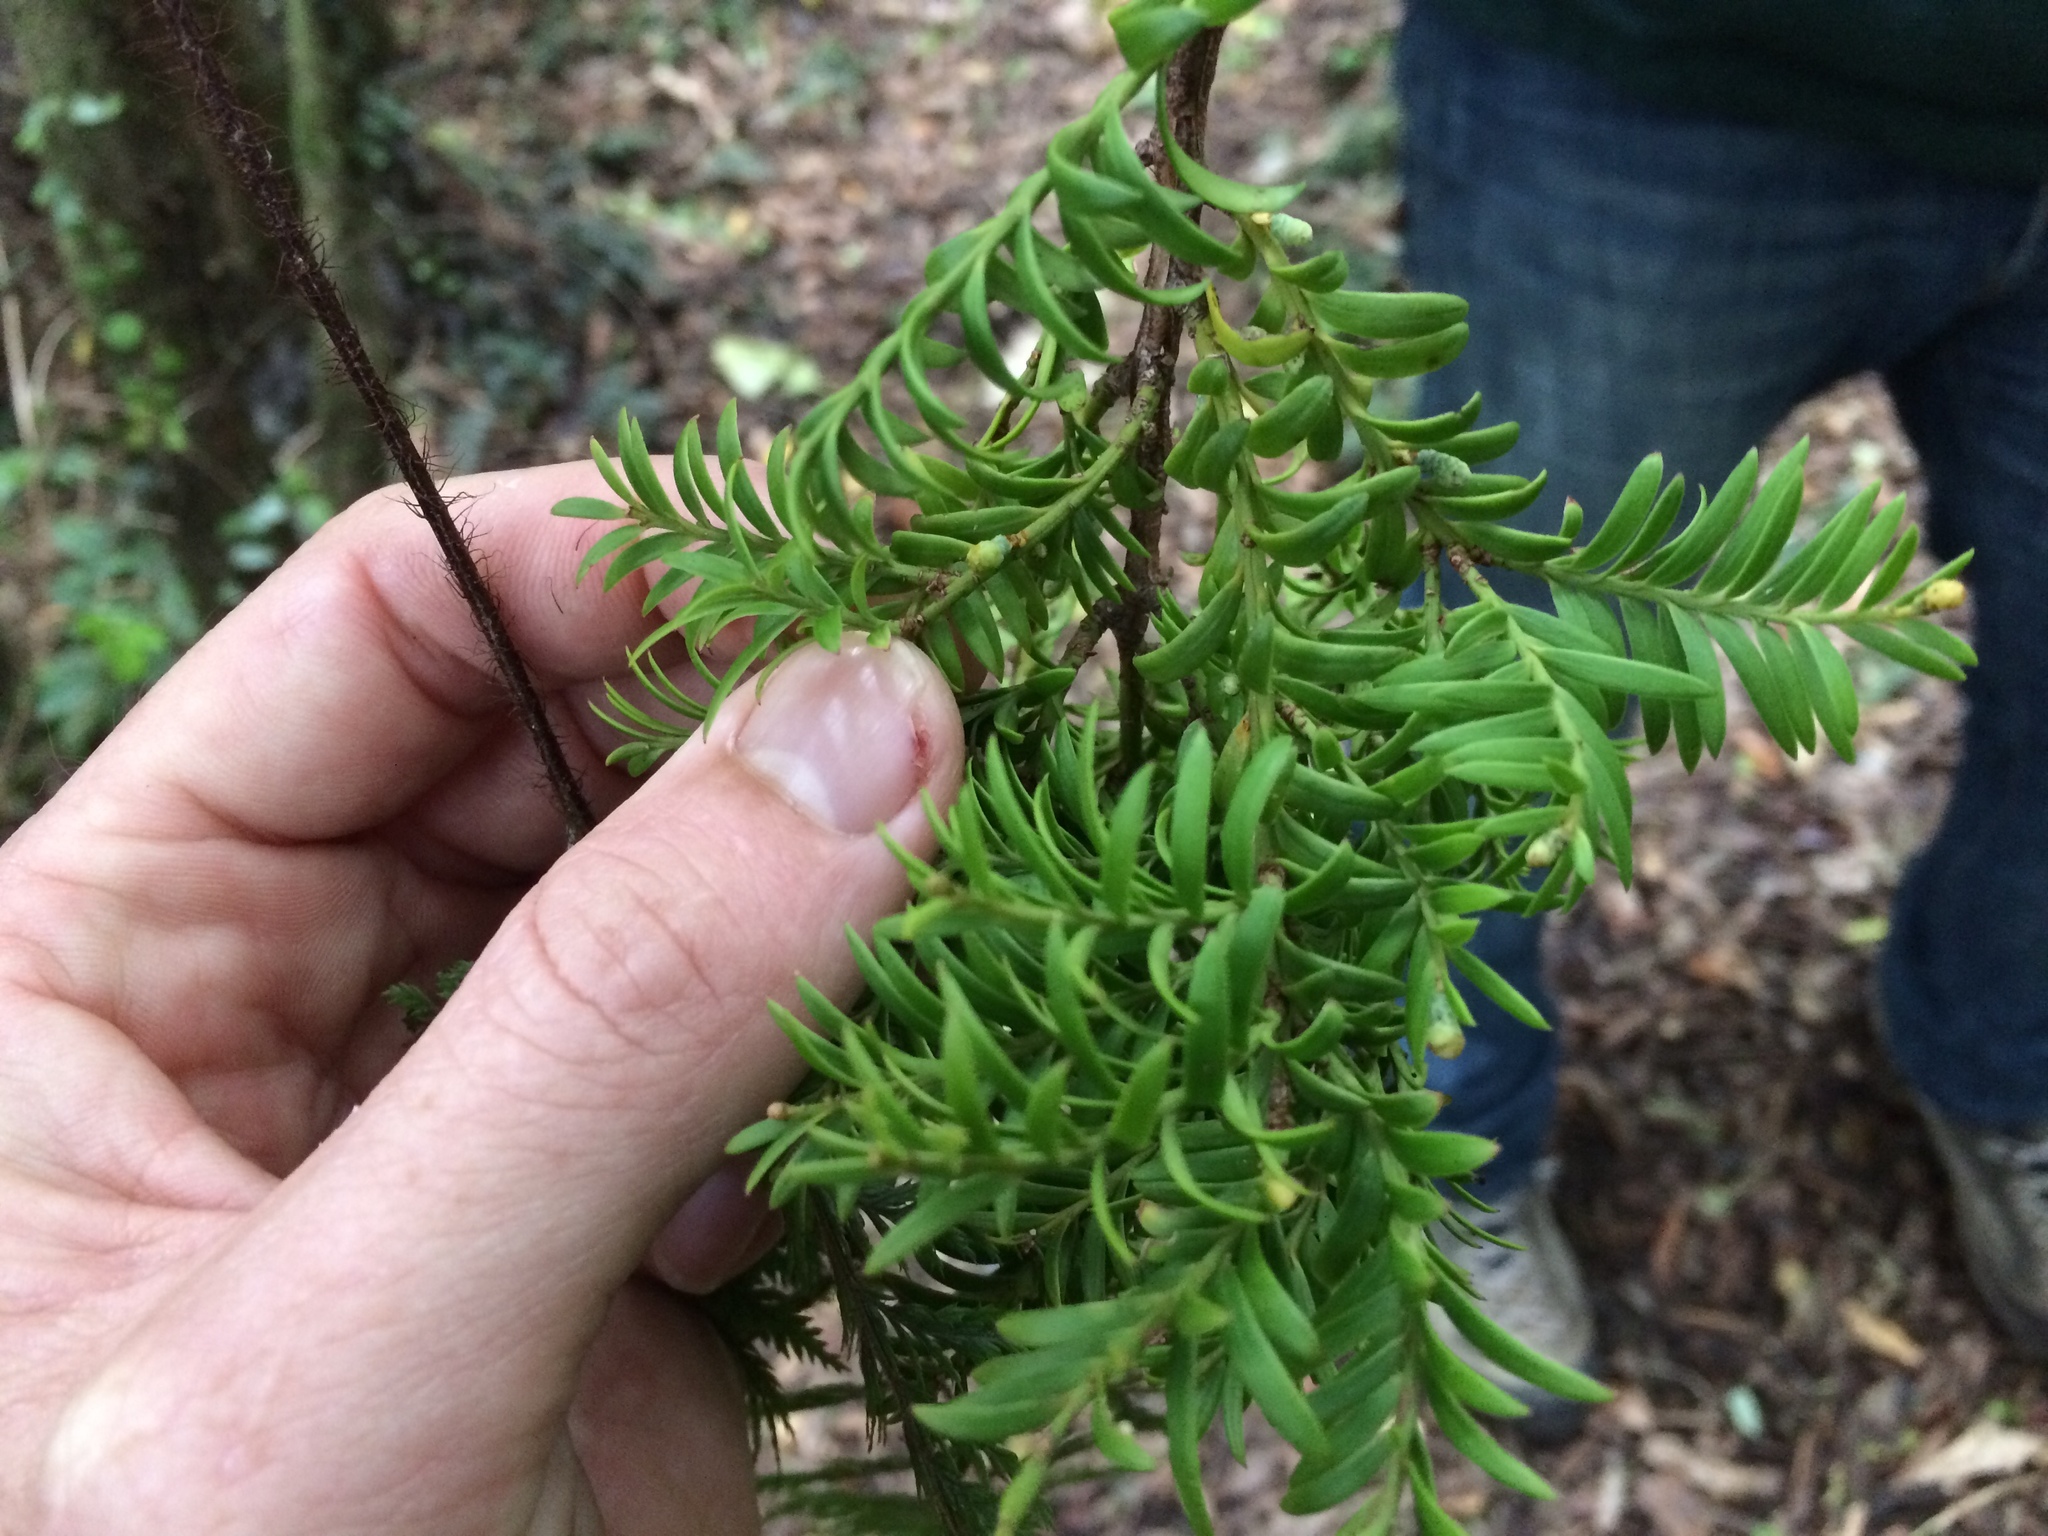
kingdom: Plantae
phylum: Tracheophyta
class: Pinopsida
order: Pinales
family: Podocarpaceae
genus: Prumnopitys
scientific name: Prumnopitys ferruginea
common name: Brown pine
